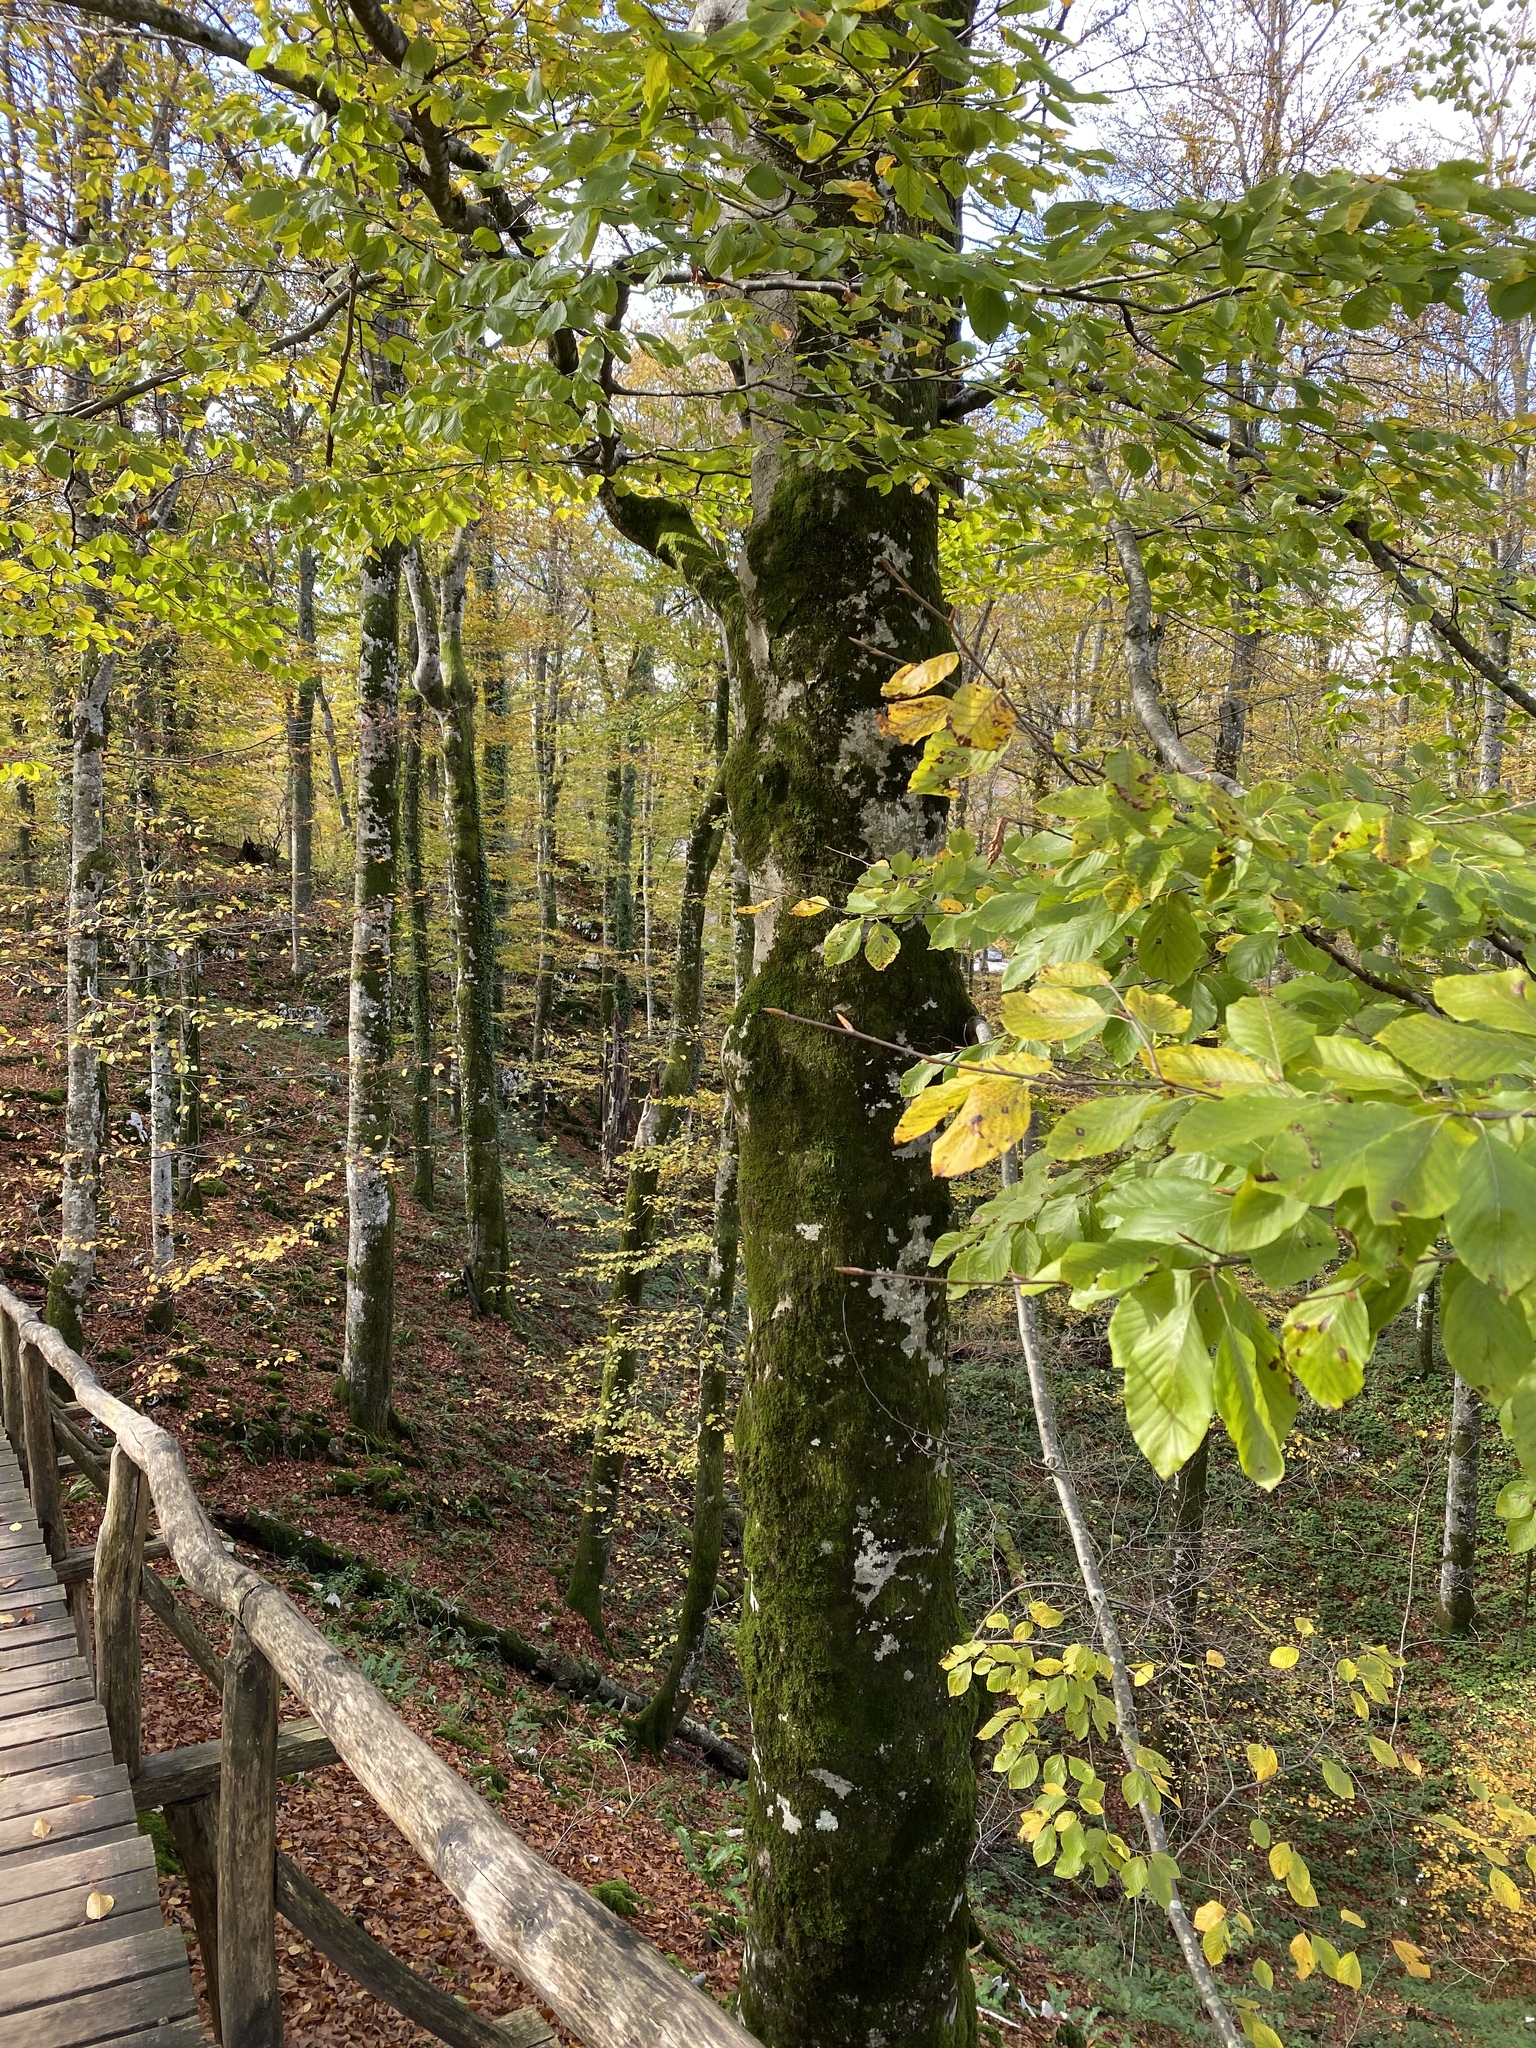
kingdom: Plantae
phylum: Tracheophyta
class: Magnoliopsida
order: Fagales
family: Fagaceae
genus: Fagus
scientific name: Fagus sylvatica
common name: Beech
